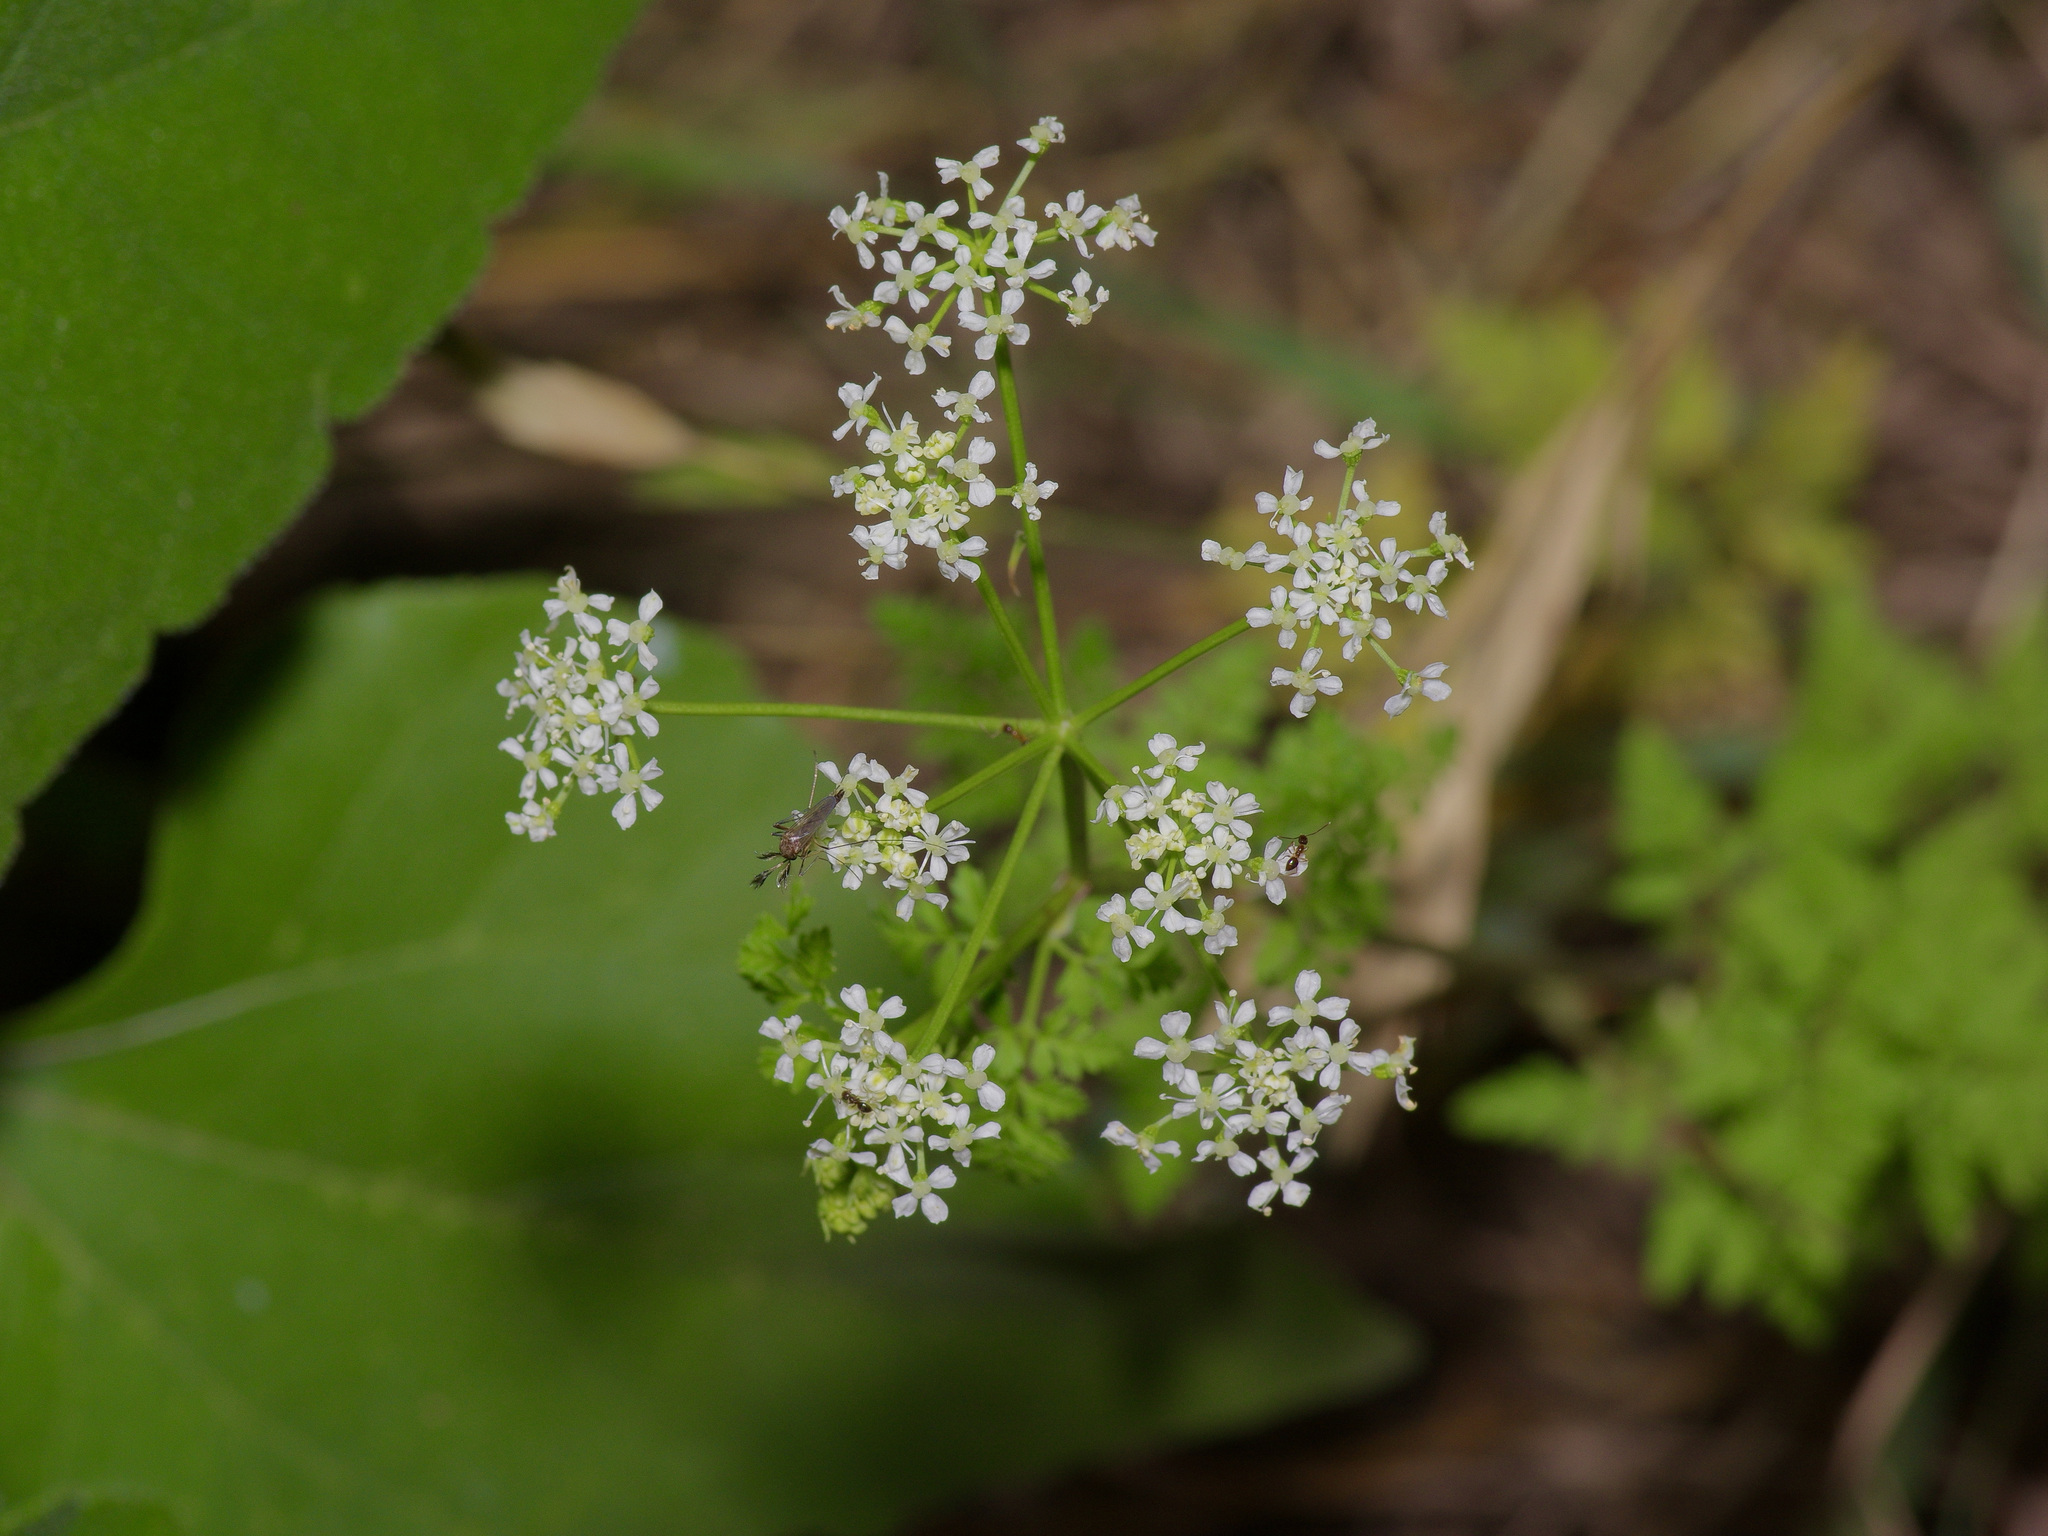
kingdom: Plantae
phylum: Tracheophyta
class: Magnoliopsida
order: Apiales
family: Apiaceae
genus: Conium
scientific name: Conium maculatum
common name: Hemlock
